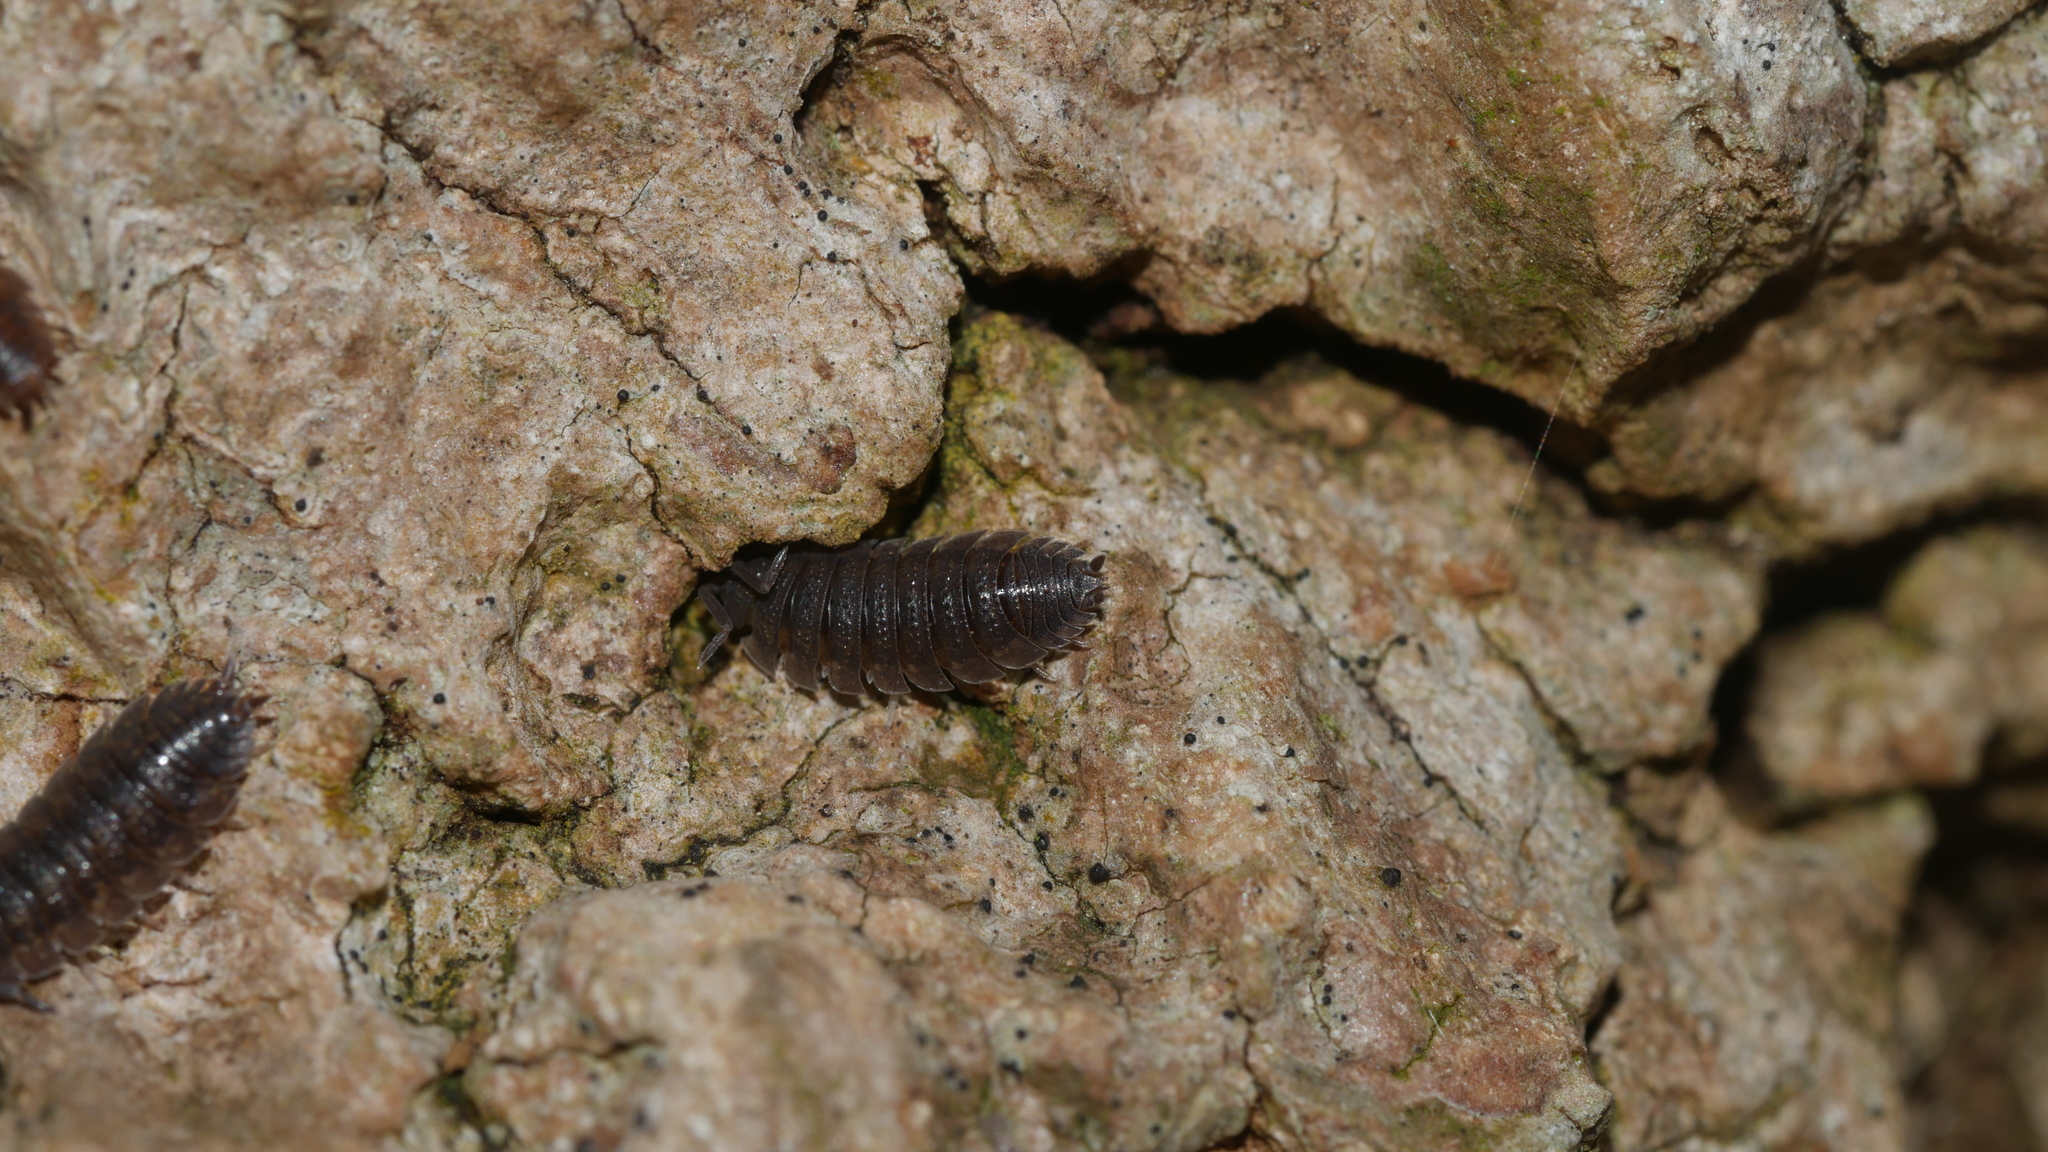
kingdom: Animalia
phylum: Arthropoda
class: Malacostraca
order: Isopoda
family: Porcellionidae
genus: Porcellio
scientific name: Porcellio scaber
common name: Common rough woodlouse
